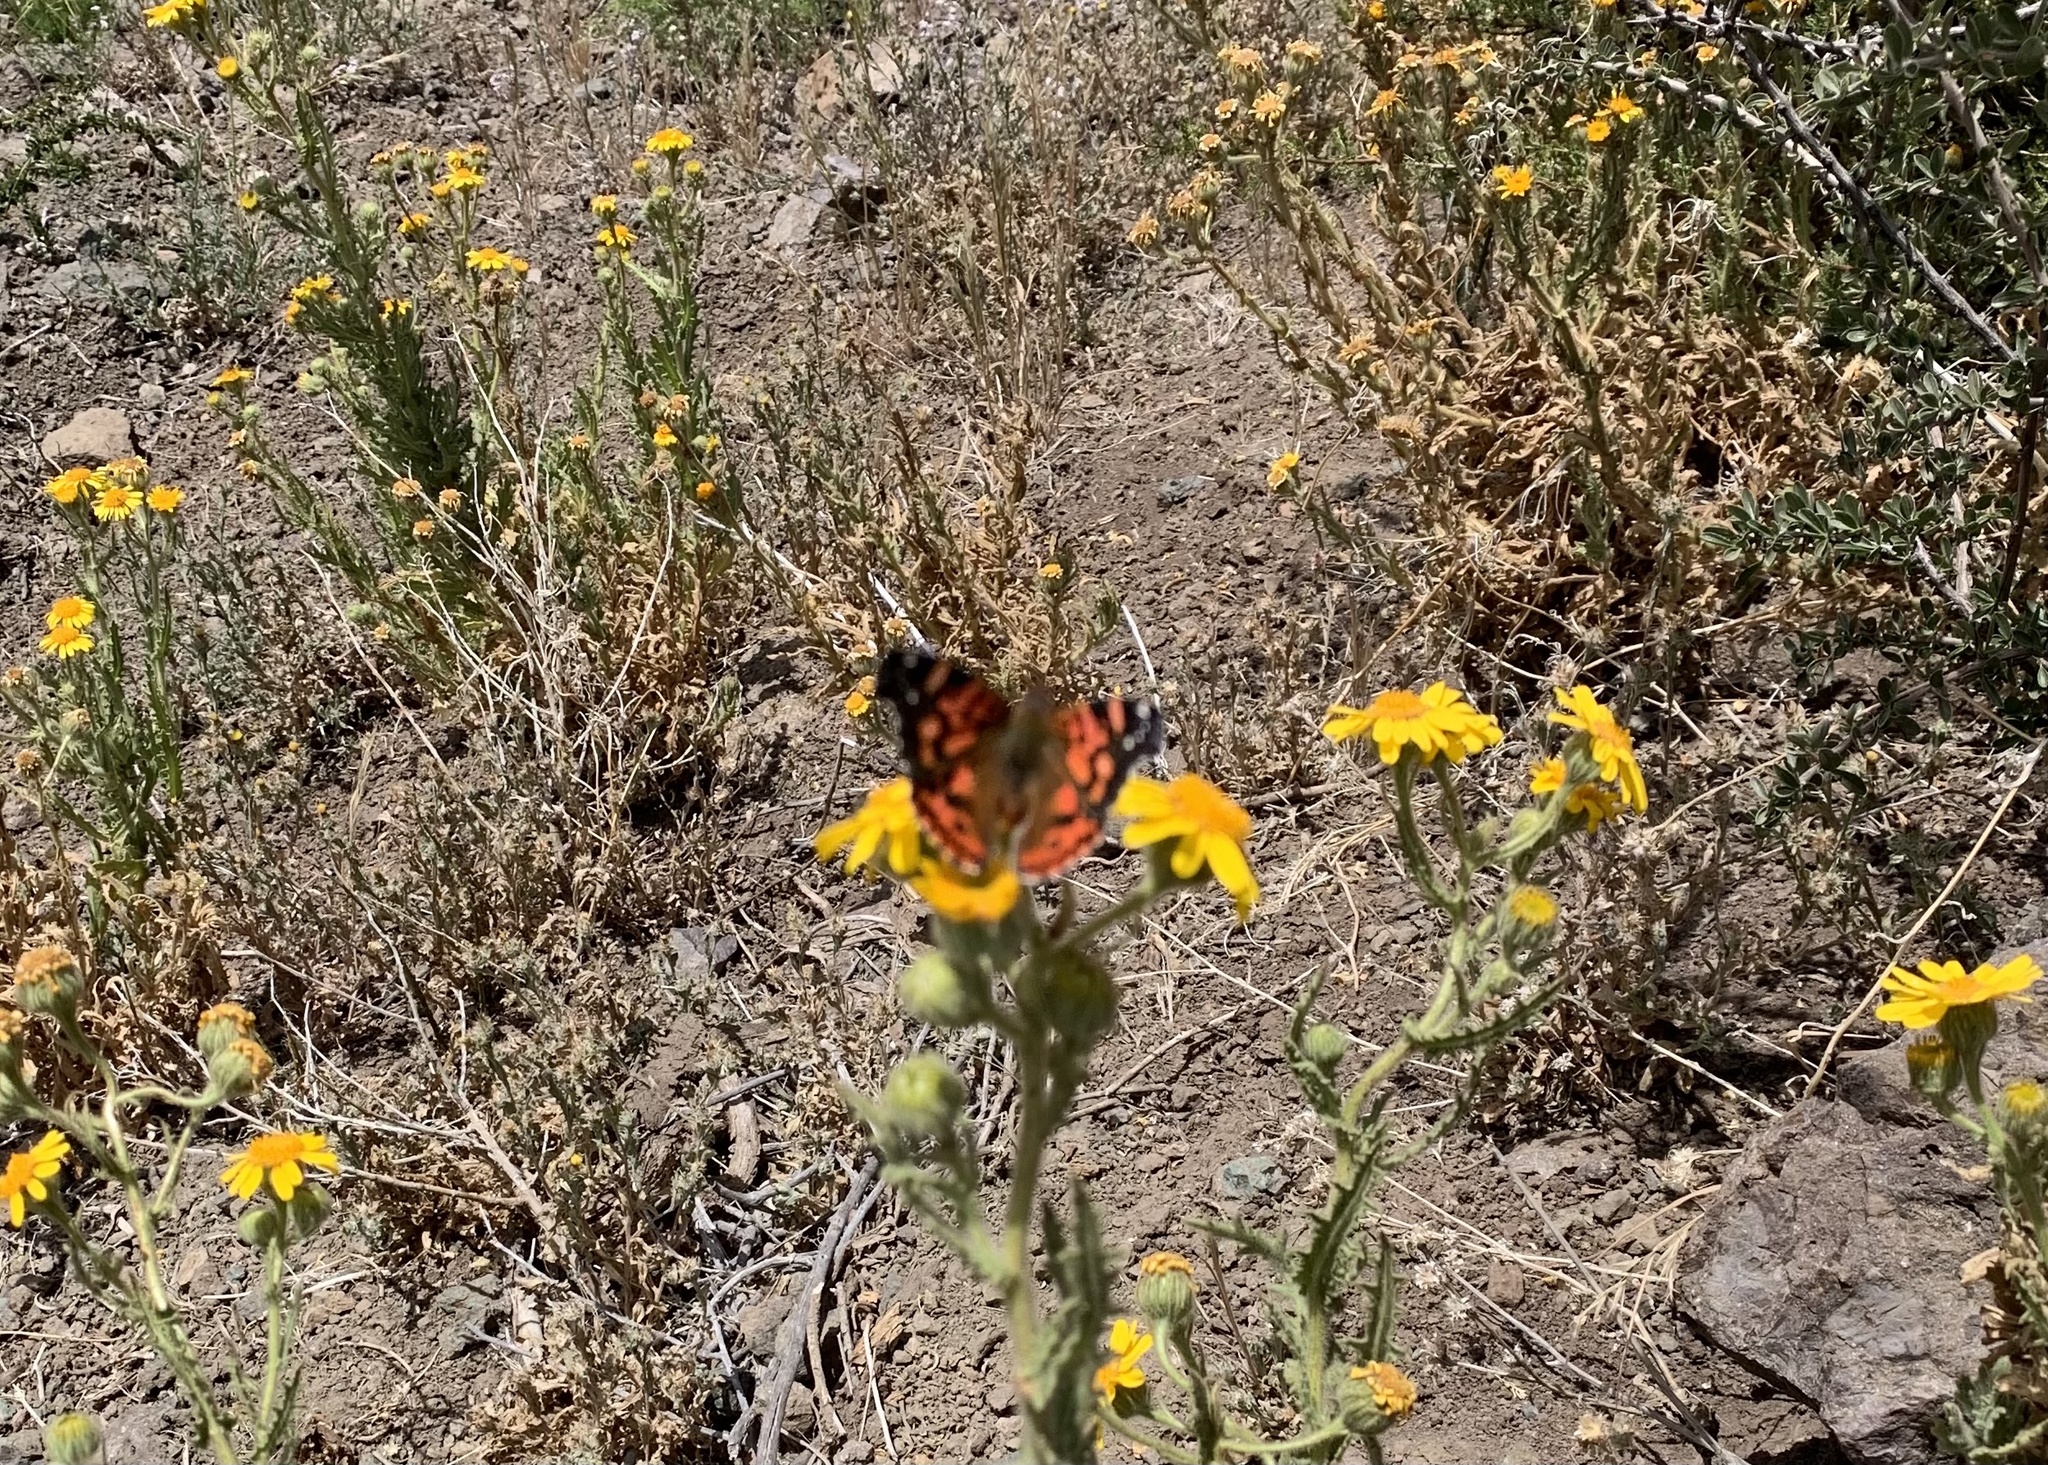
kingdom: Animalia
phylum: Arthropoda
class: Insecta
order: Lepidoptera
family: Nymphalidae
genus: Vanessa
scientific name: Vanessa terpsichore
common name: Chilean lady
